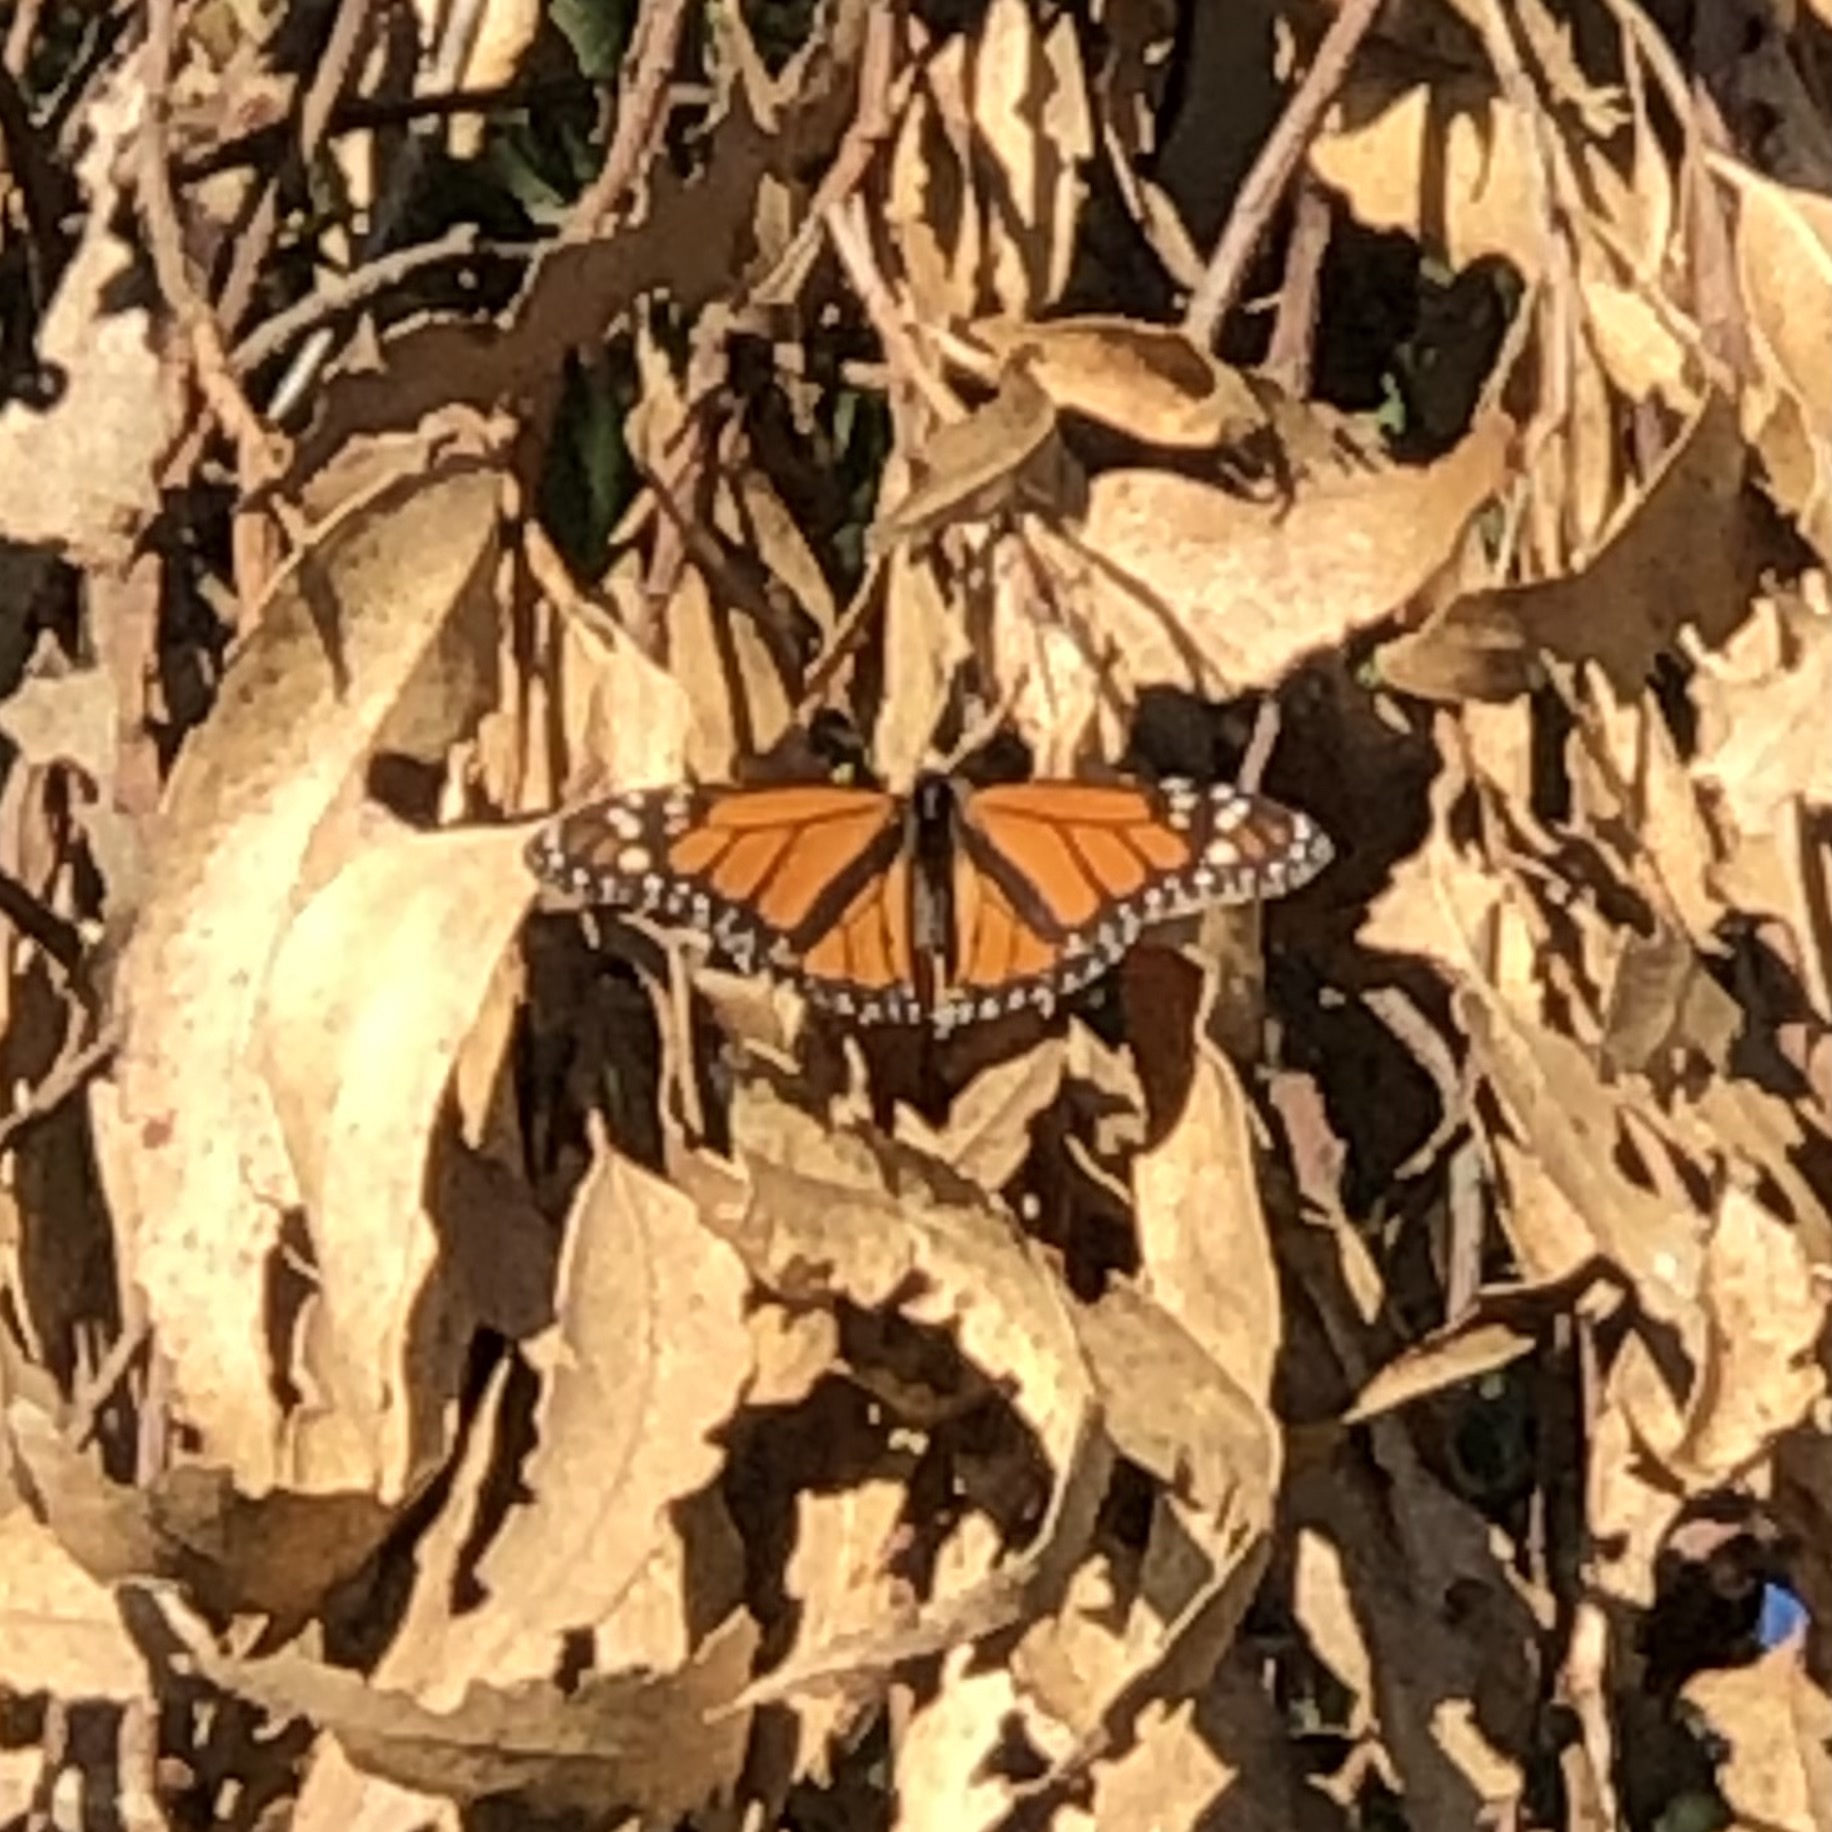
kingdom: Animalia
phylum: Arthropoda
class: Insecta
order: Lepidoptera
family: Nymphalidae
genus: Danaus
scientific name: Danaus plexippus
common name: Monarch
